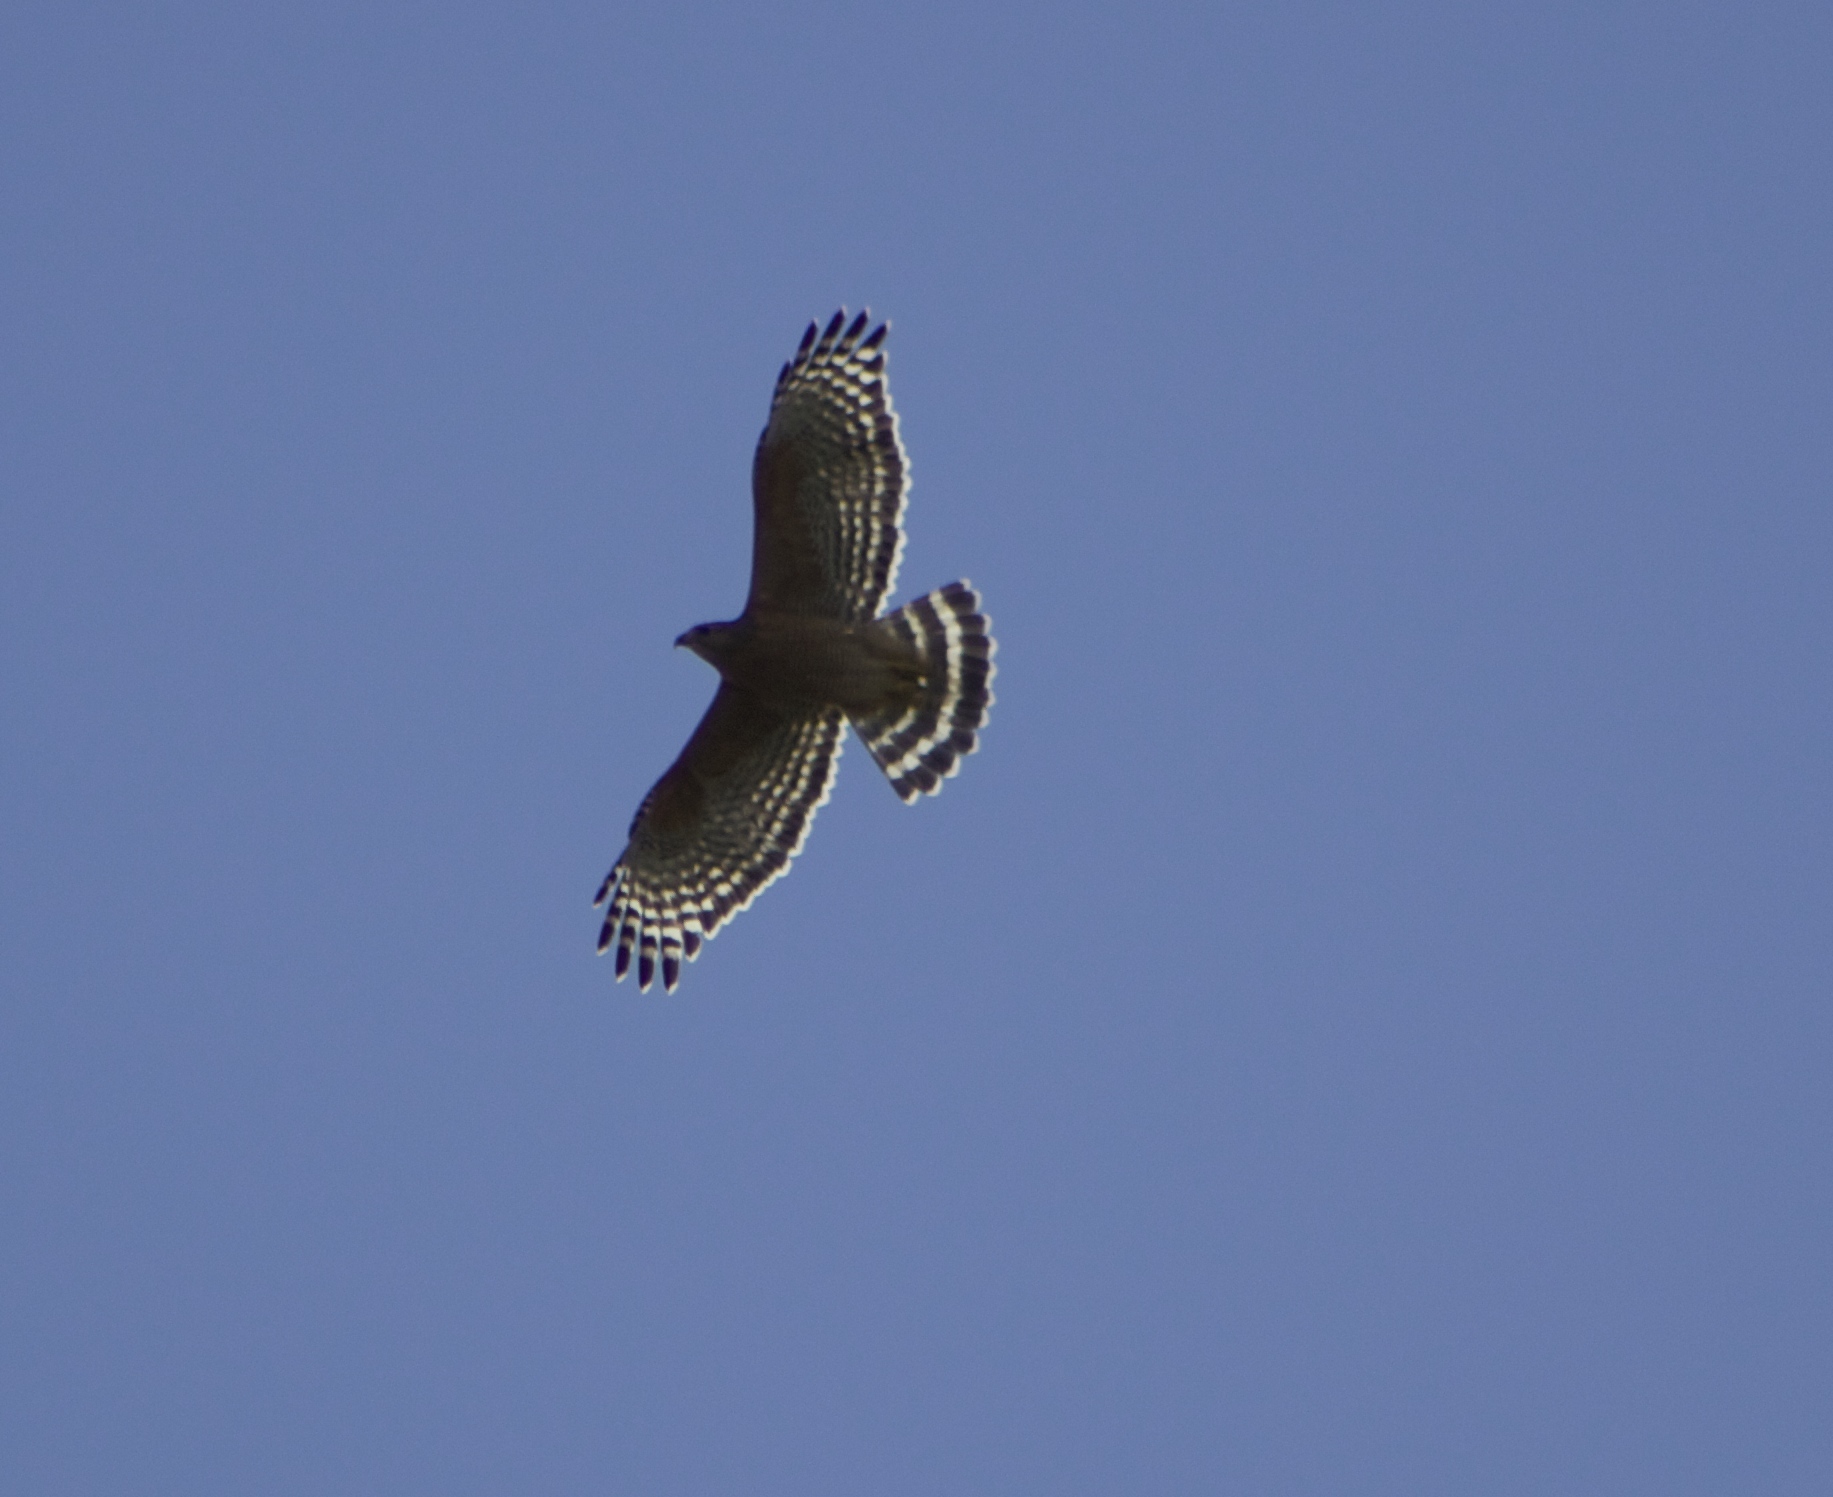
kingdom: Animalia
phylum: Chordata
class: Aves
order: Accipitriformes
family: Accipitridae
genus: Buteo
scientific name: Buteo lineatus
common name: Red-shouldered hawk
